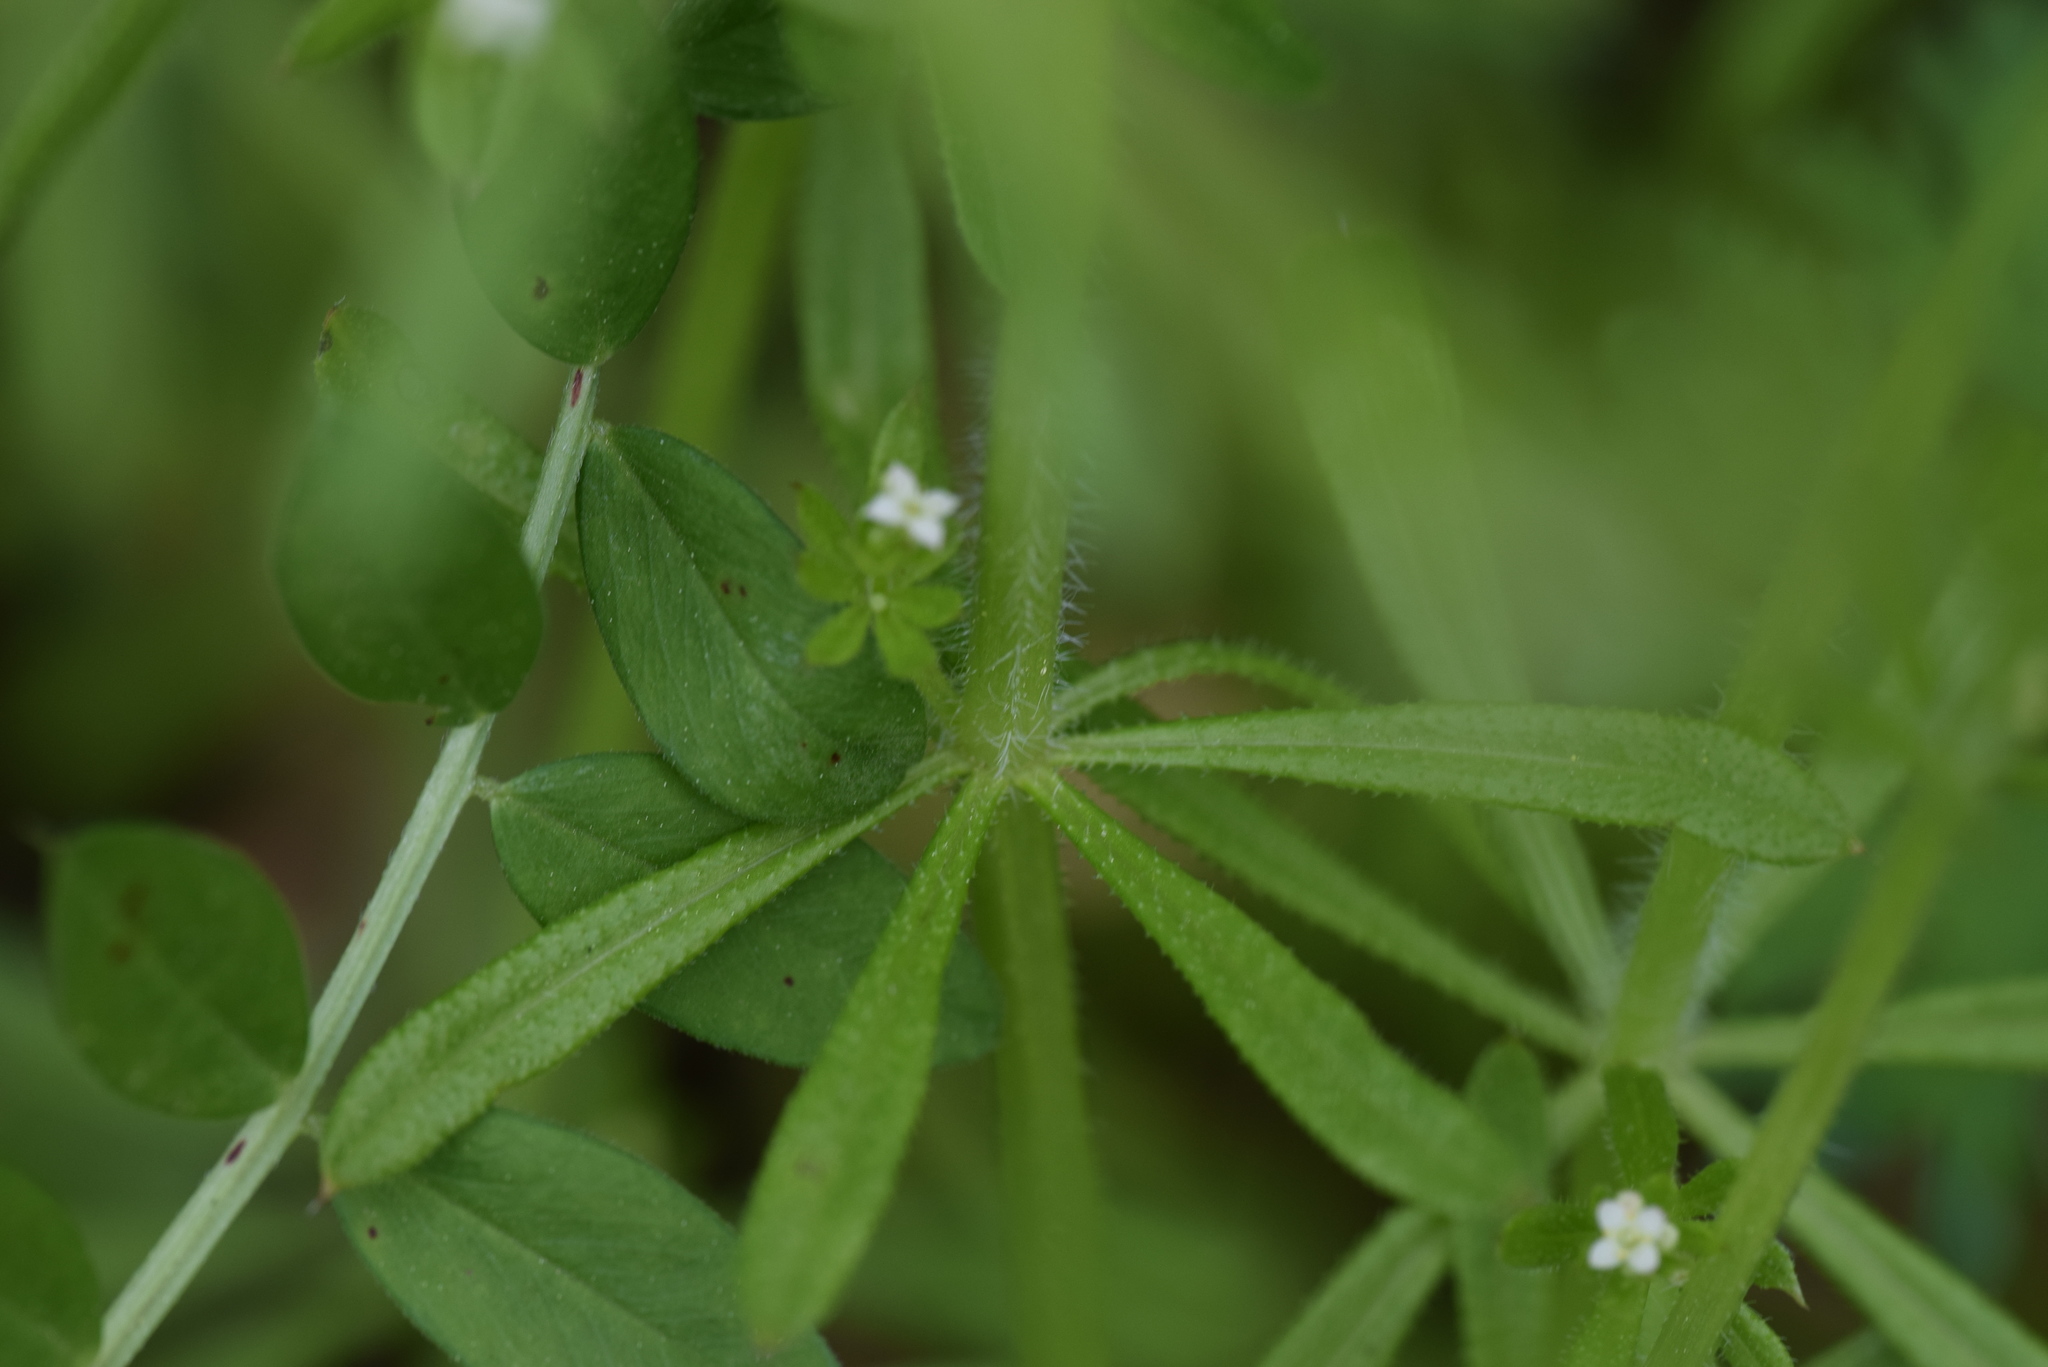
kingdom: Plantae
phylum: Tracheophyta
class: Magnoliopsida
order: Gentianales
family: Rubiaceae
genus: Galium
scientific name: Galium aparine
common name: Cleavers
